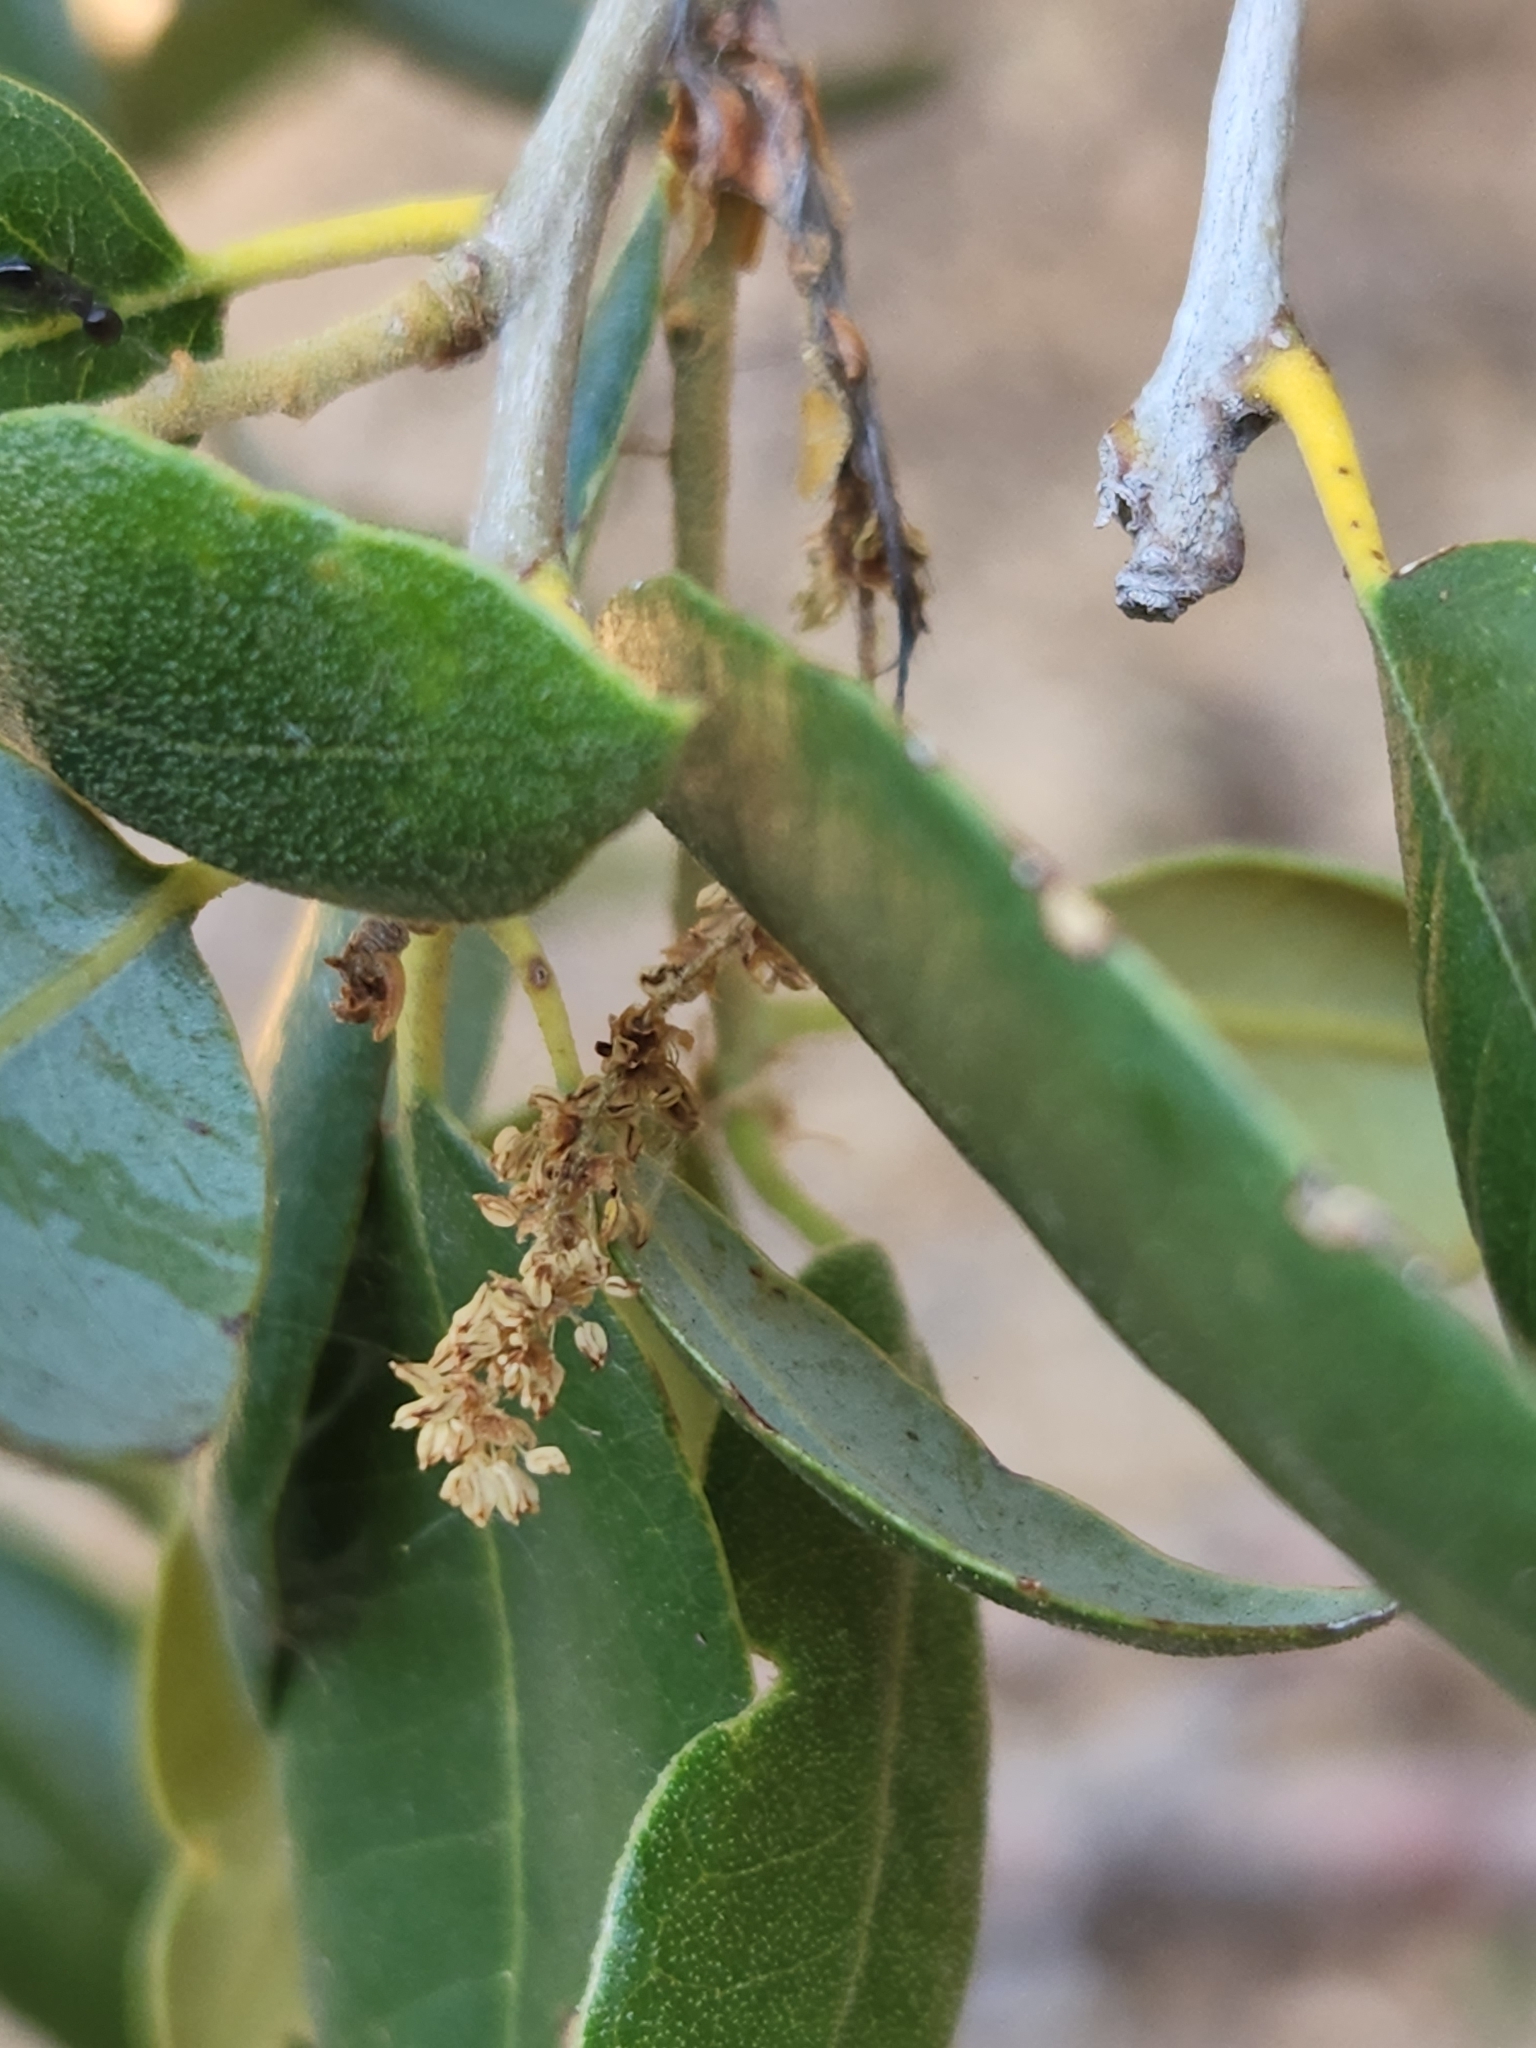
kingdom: Plantae
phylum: Tracheophyta
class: Magnoliopsida
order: Fagales
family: Fagaceae
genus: Quercus
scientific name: Quercus chrysolepis
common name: Canyon live oak
